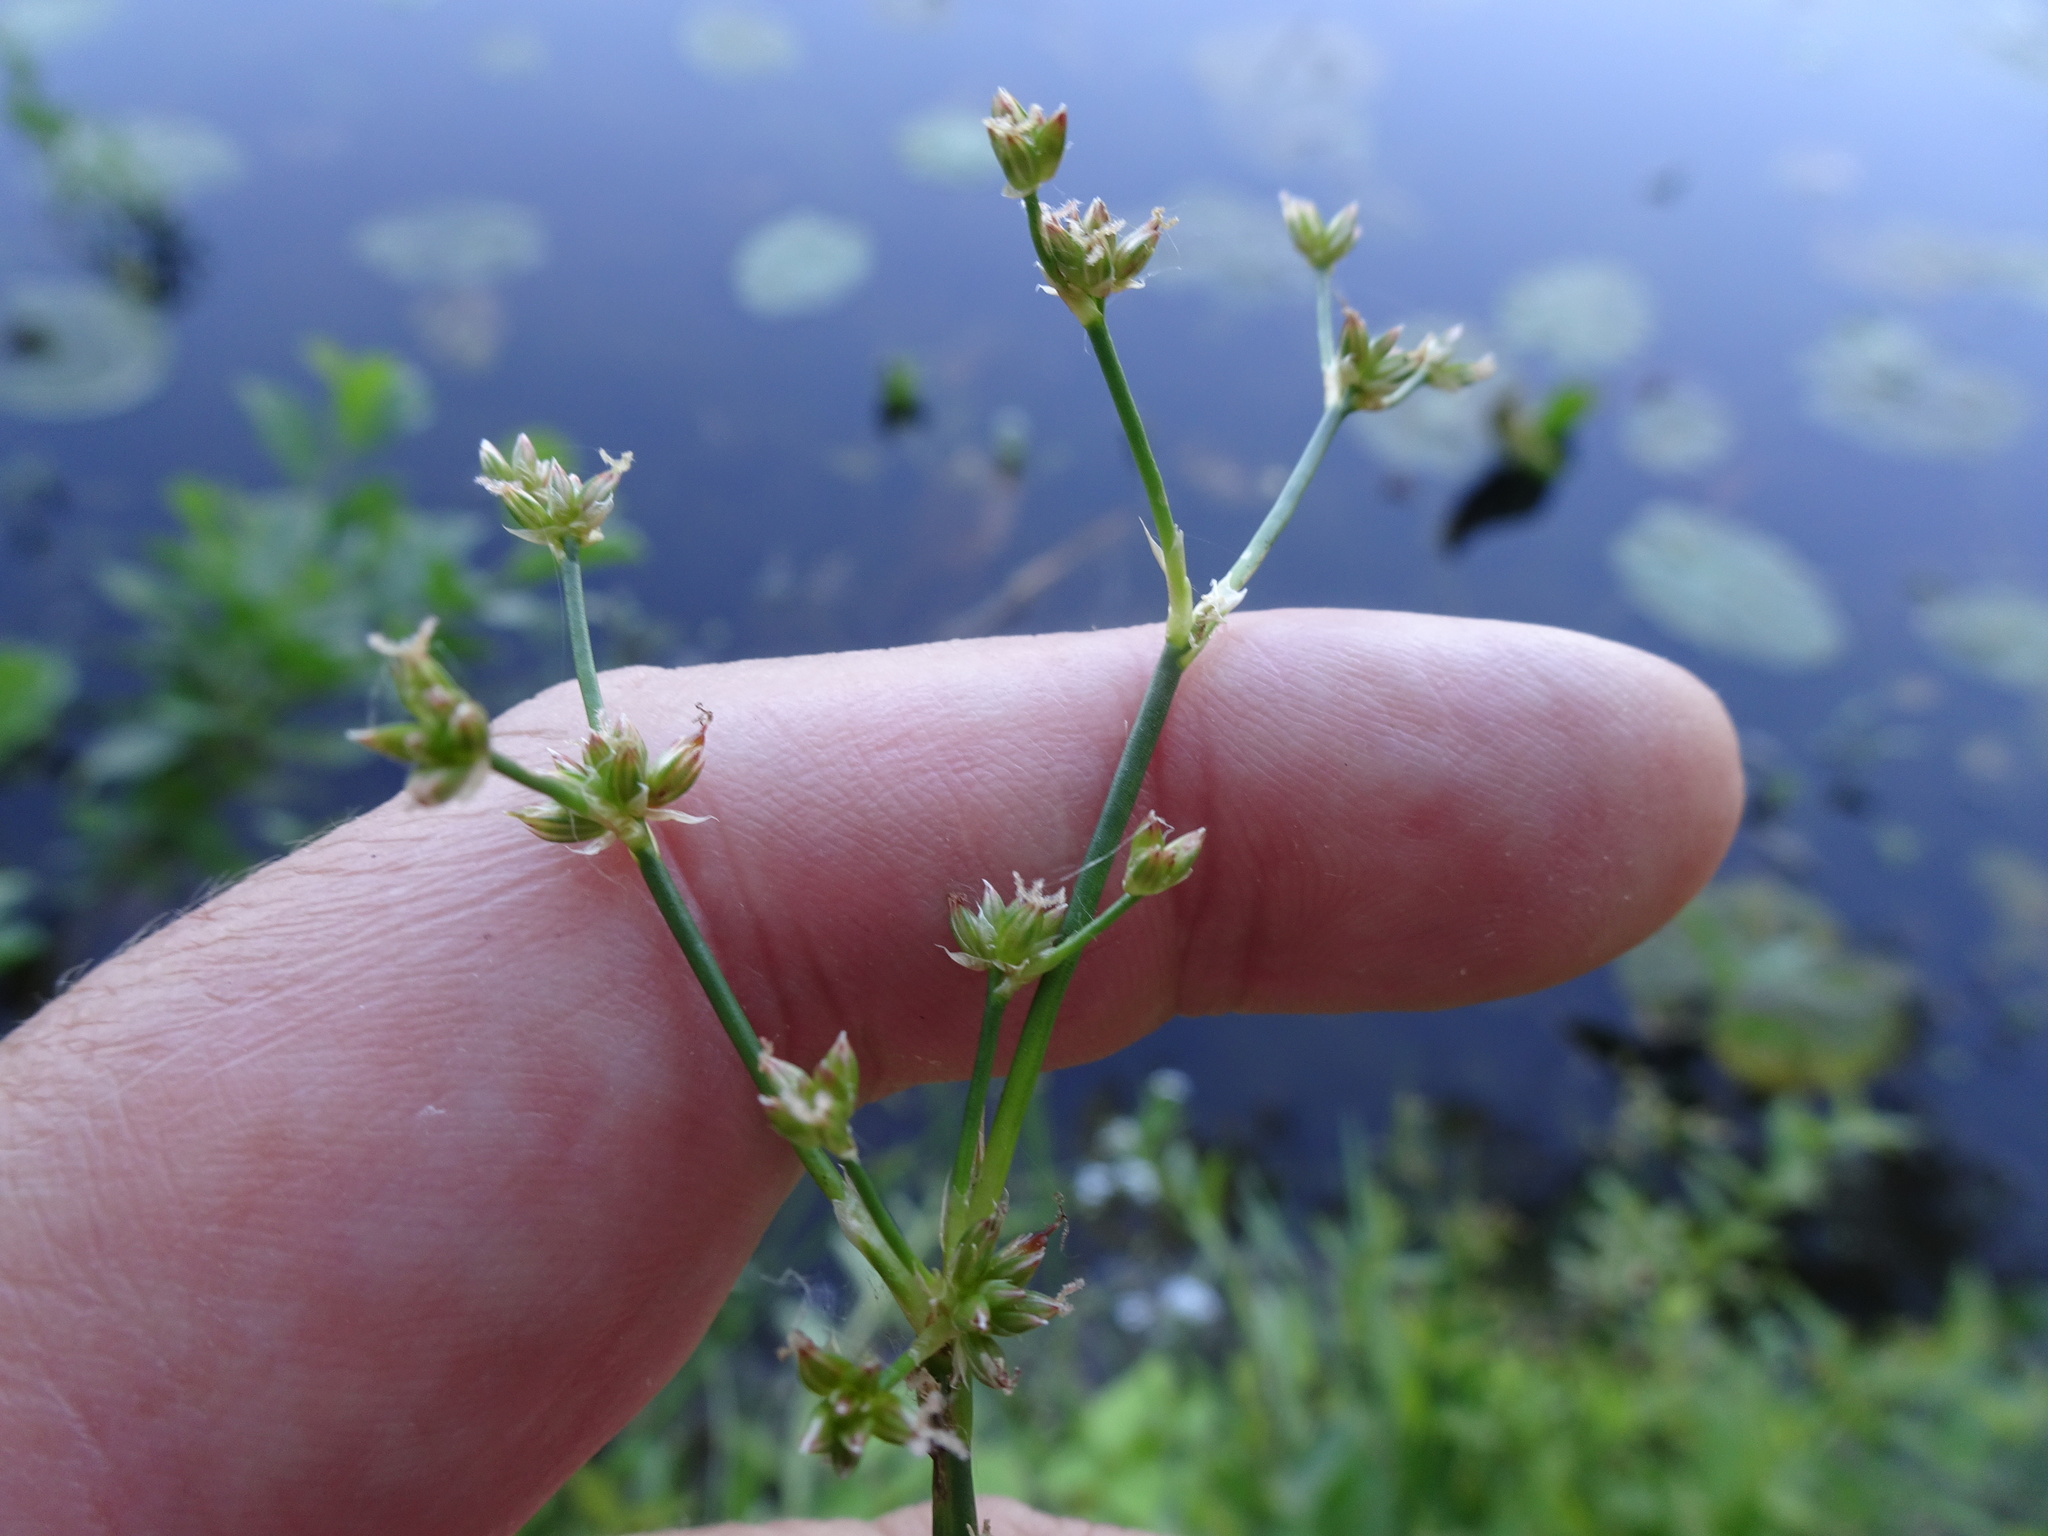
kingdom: Plantae
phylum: Tracheophyta
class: Liliopsida
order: Poales
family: Juncaceae
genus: Juncus
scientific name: Juncus articulatus
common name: Jointed rush
